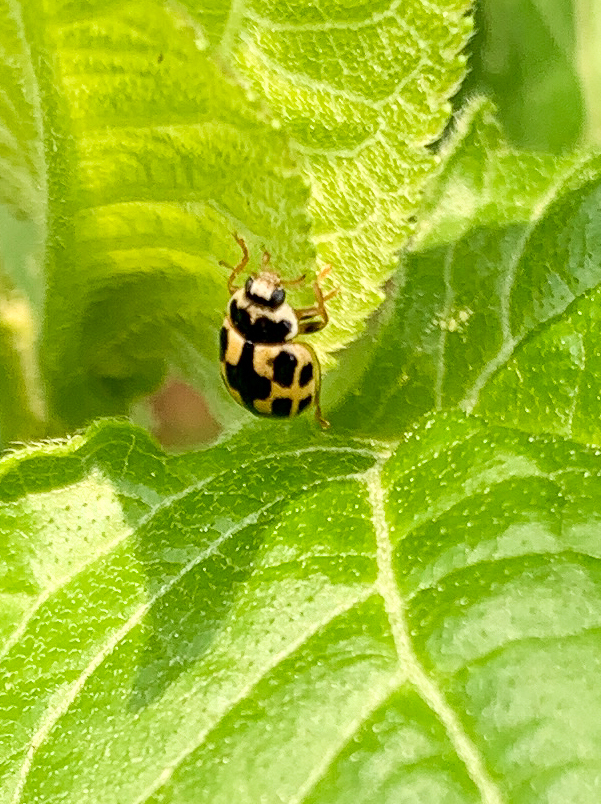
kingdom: Animalia
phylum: Arthropoda
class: Insecta
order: Coleoptera
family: Coccinellidae
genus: Propylaea
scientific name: Propylaea quatuordecimpunctata
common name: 14-spotted ladybird beetle
